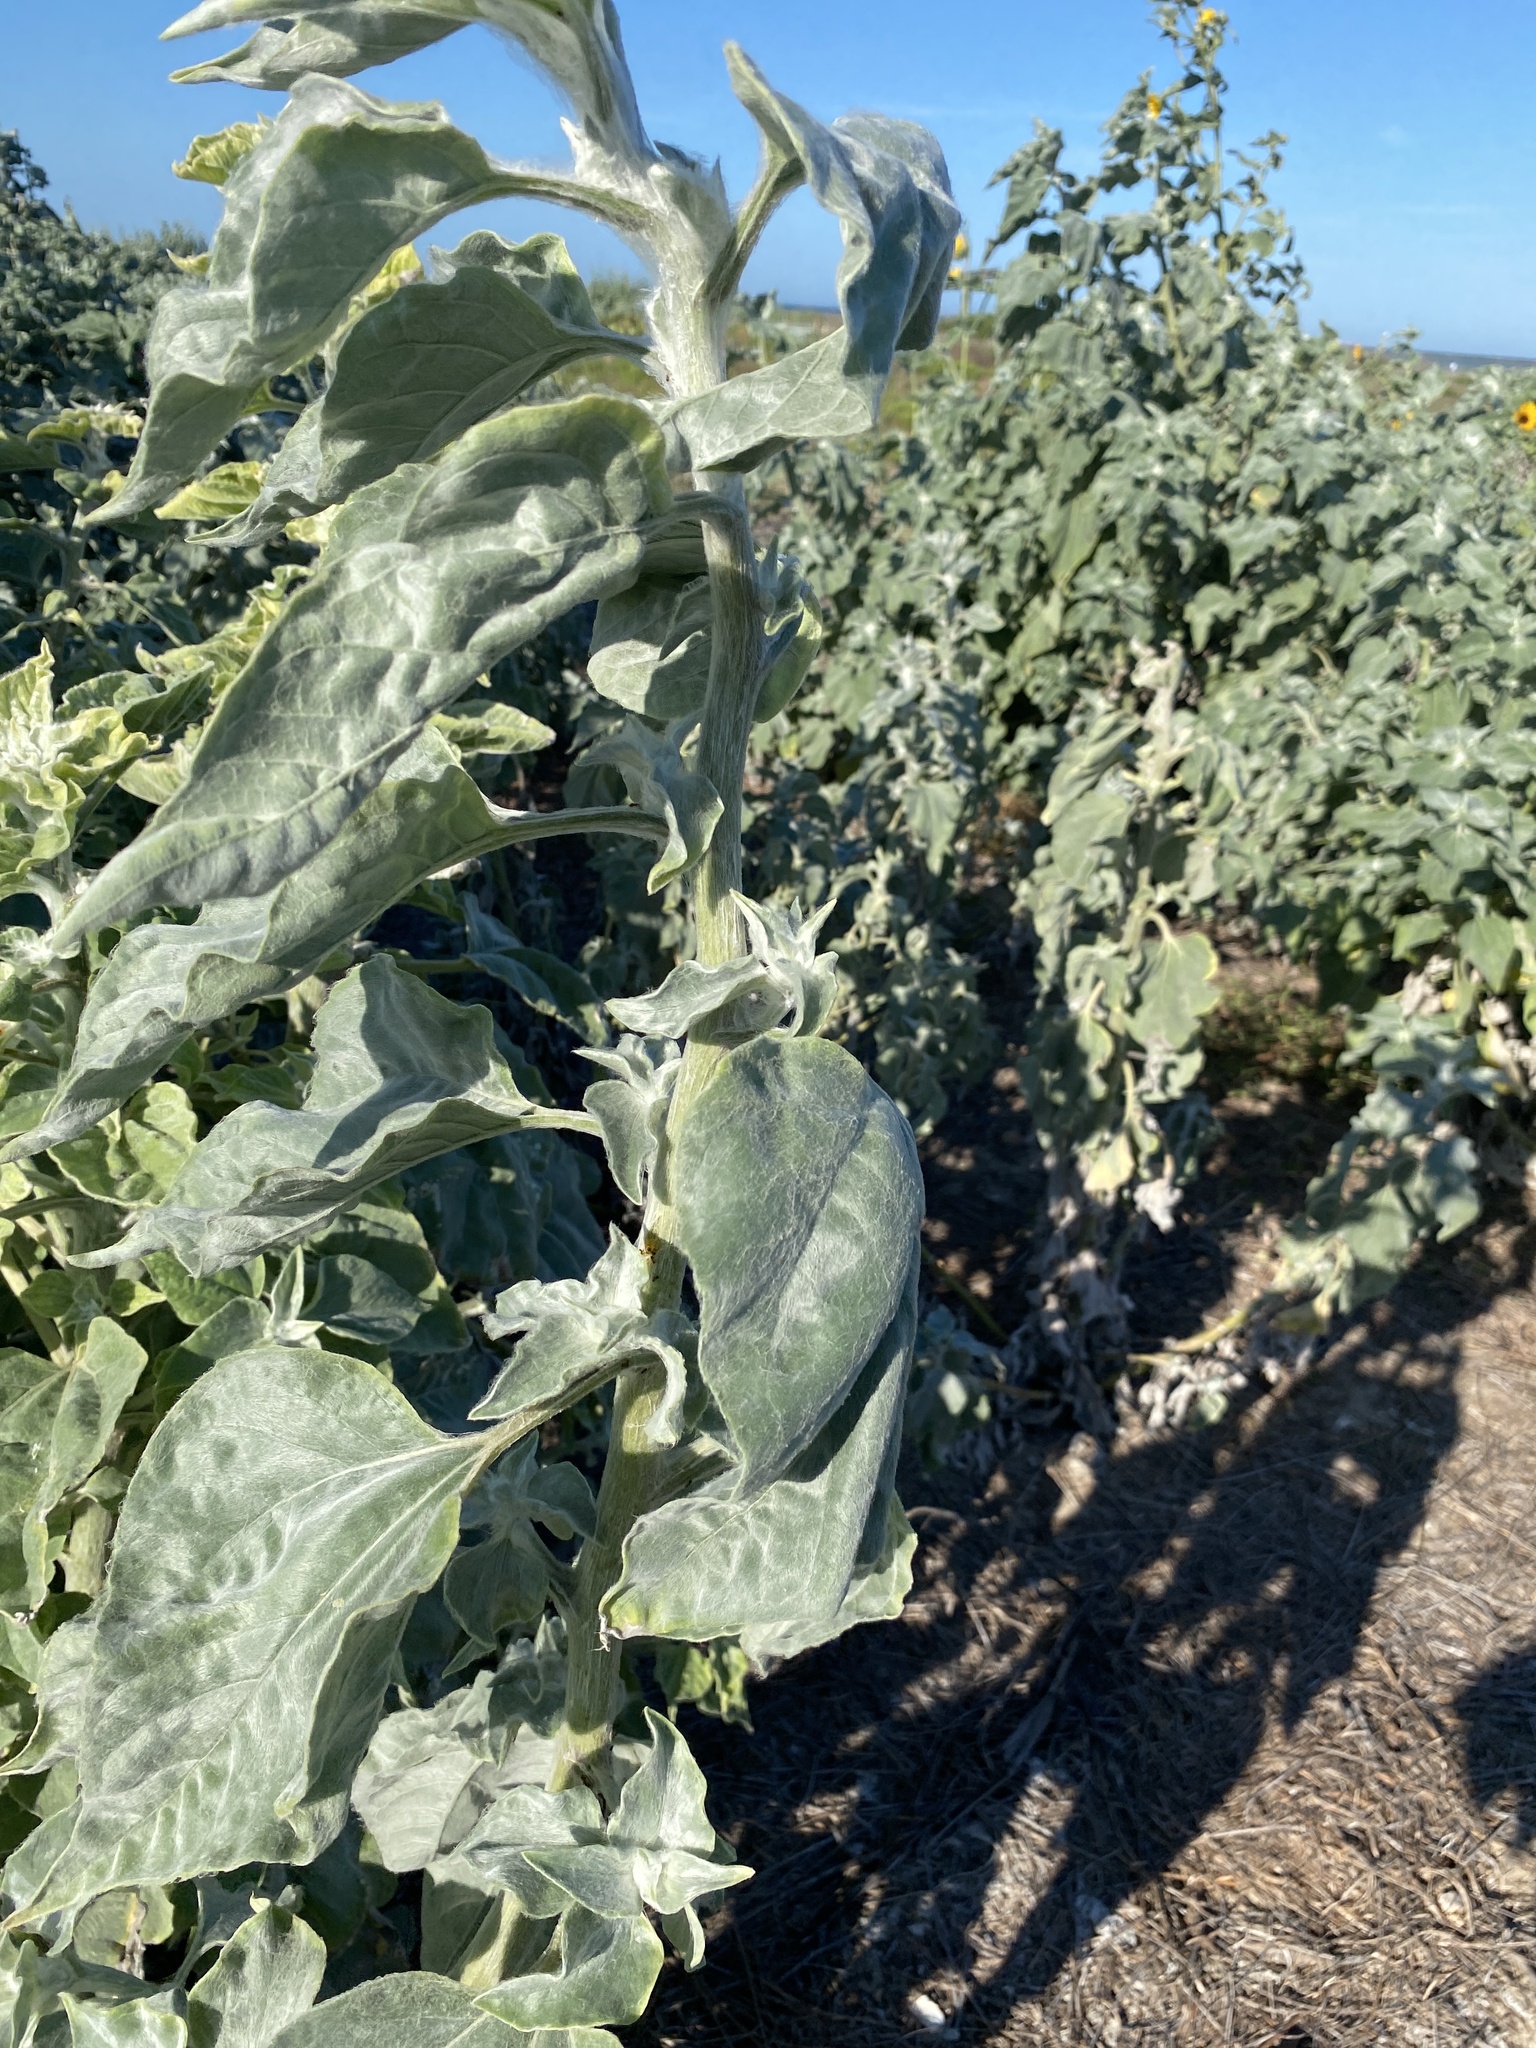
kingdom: Plantae
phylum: Tracheophyta
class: Magnoliopsida
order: Asterales
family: Asteraceae
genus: Helianthus
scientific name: Helianthus argophyllus
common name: Silverleaf sunflower
